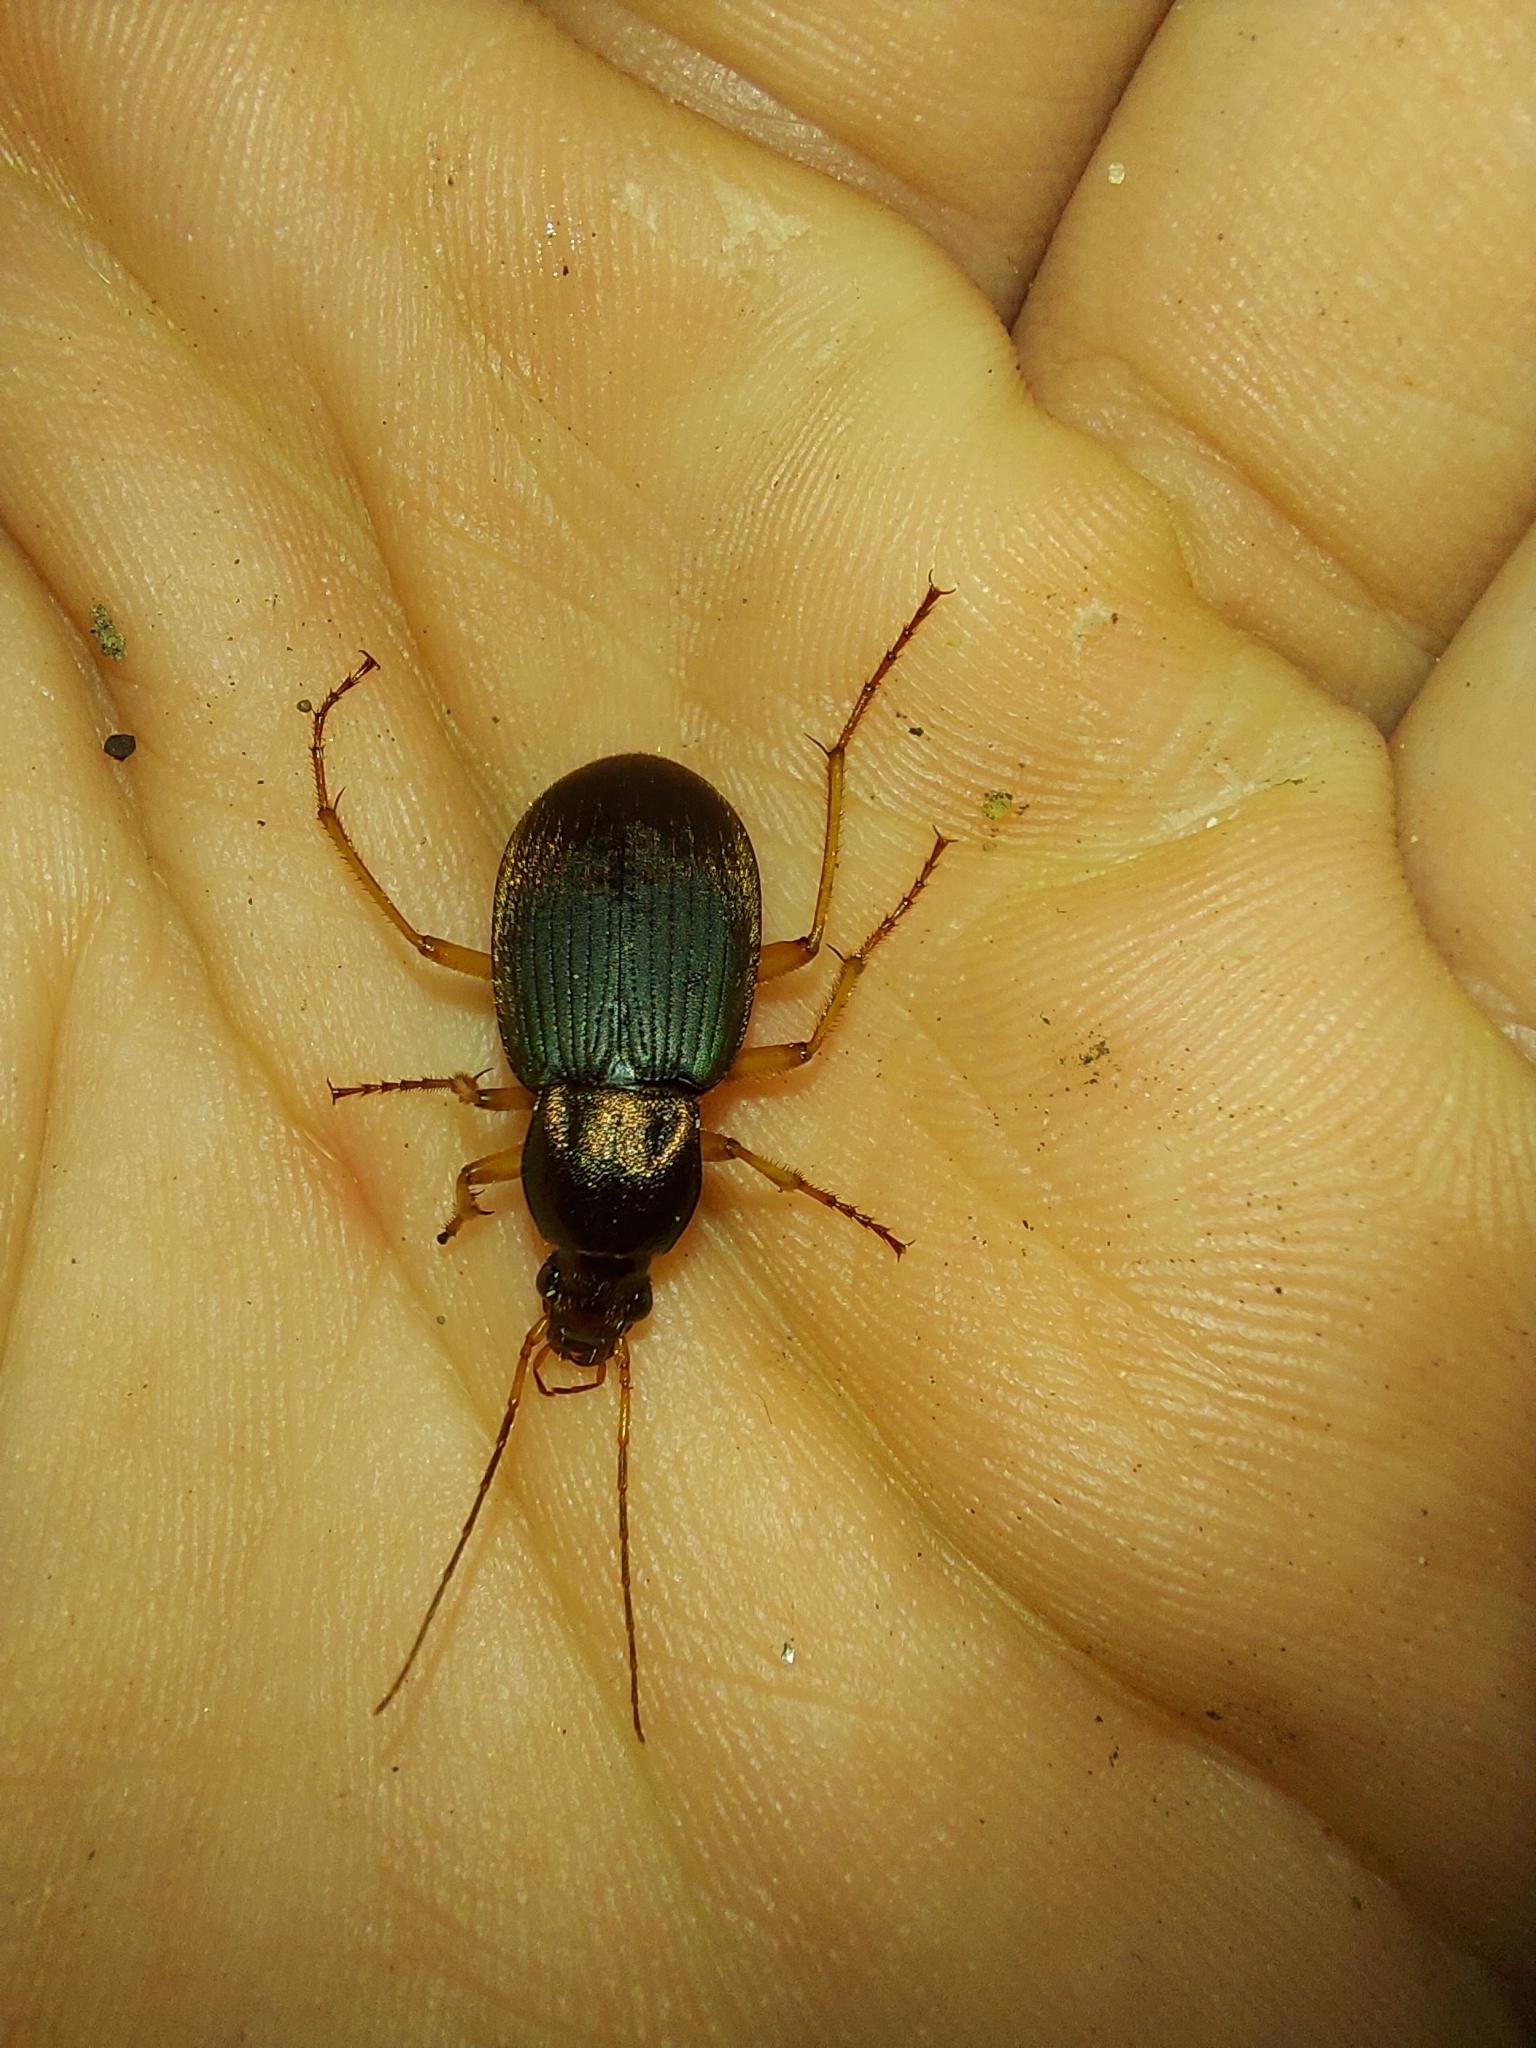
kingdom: Animalia
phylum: Arthropoda
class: Insecta
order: Coleoptera
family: Carabidae
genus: Chlaenius
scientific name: Chlaenius aestivus
